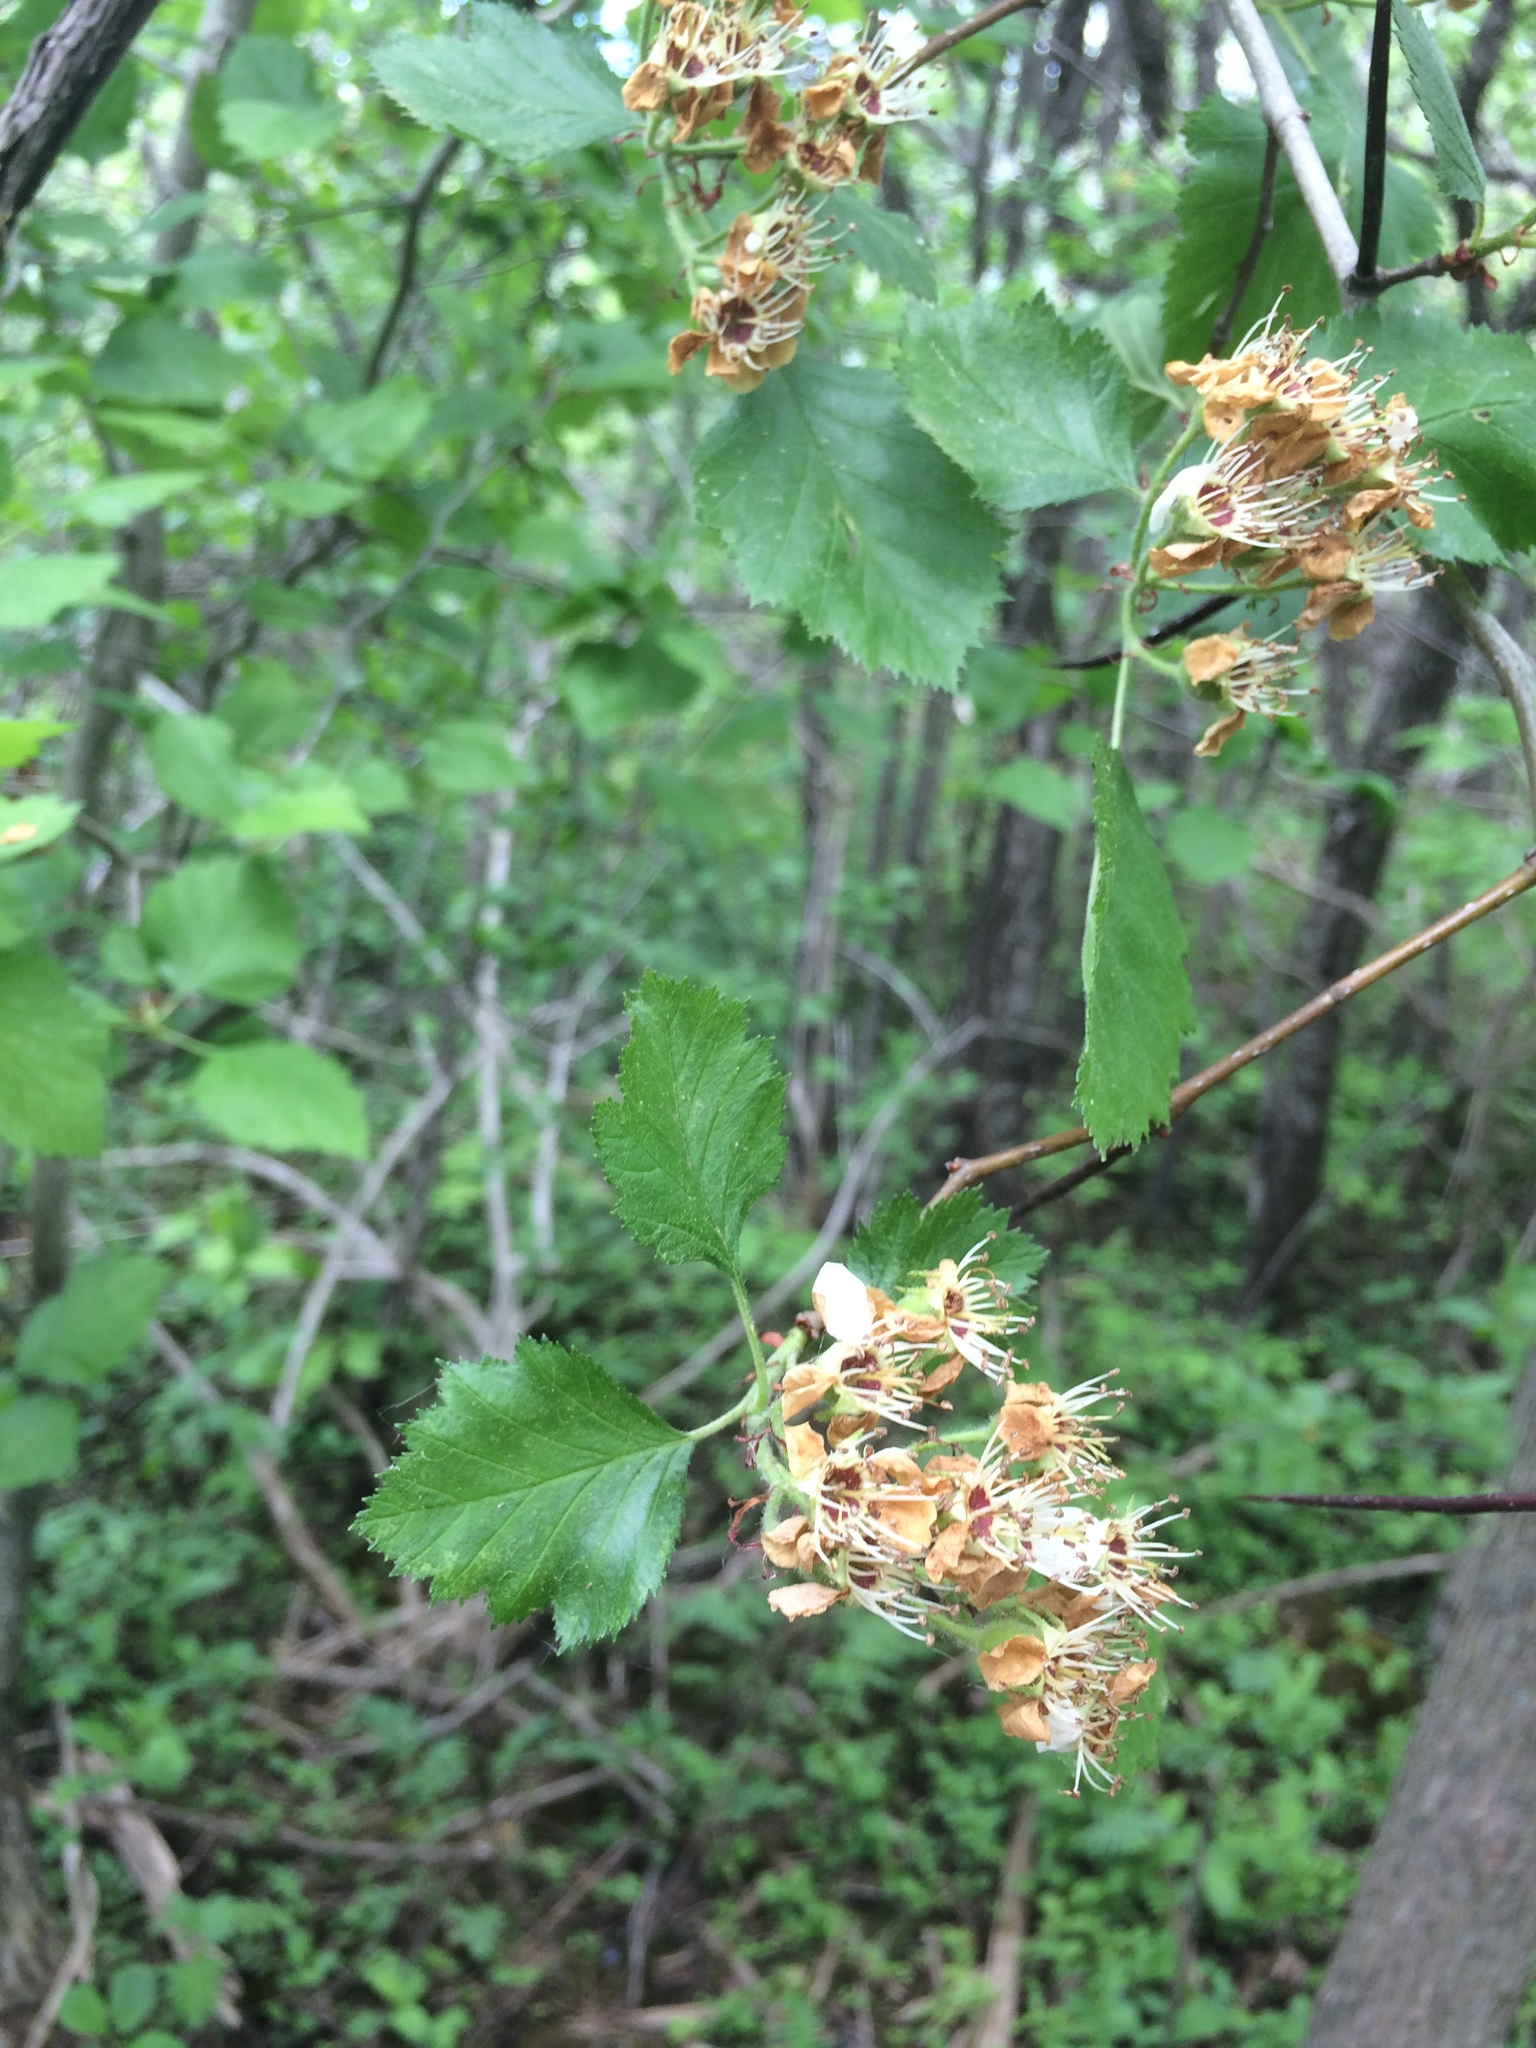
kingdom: Plantae
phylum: Tracheophyta
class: Magnoliopsida
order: Rosales
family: Rosaceae
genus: Crataegus
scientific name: Crataegus submollis
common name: Hairy cockspurthorn
